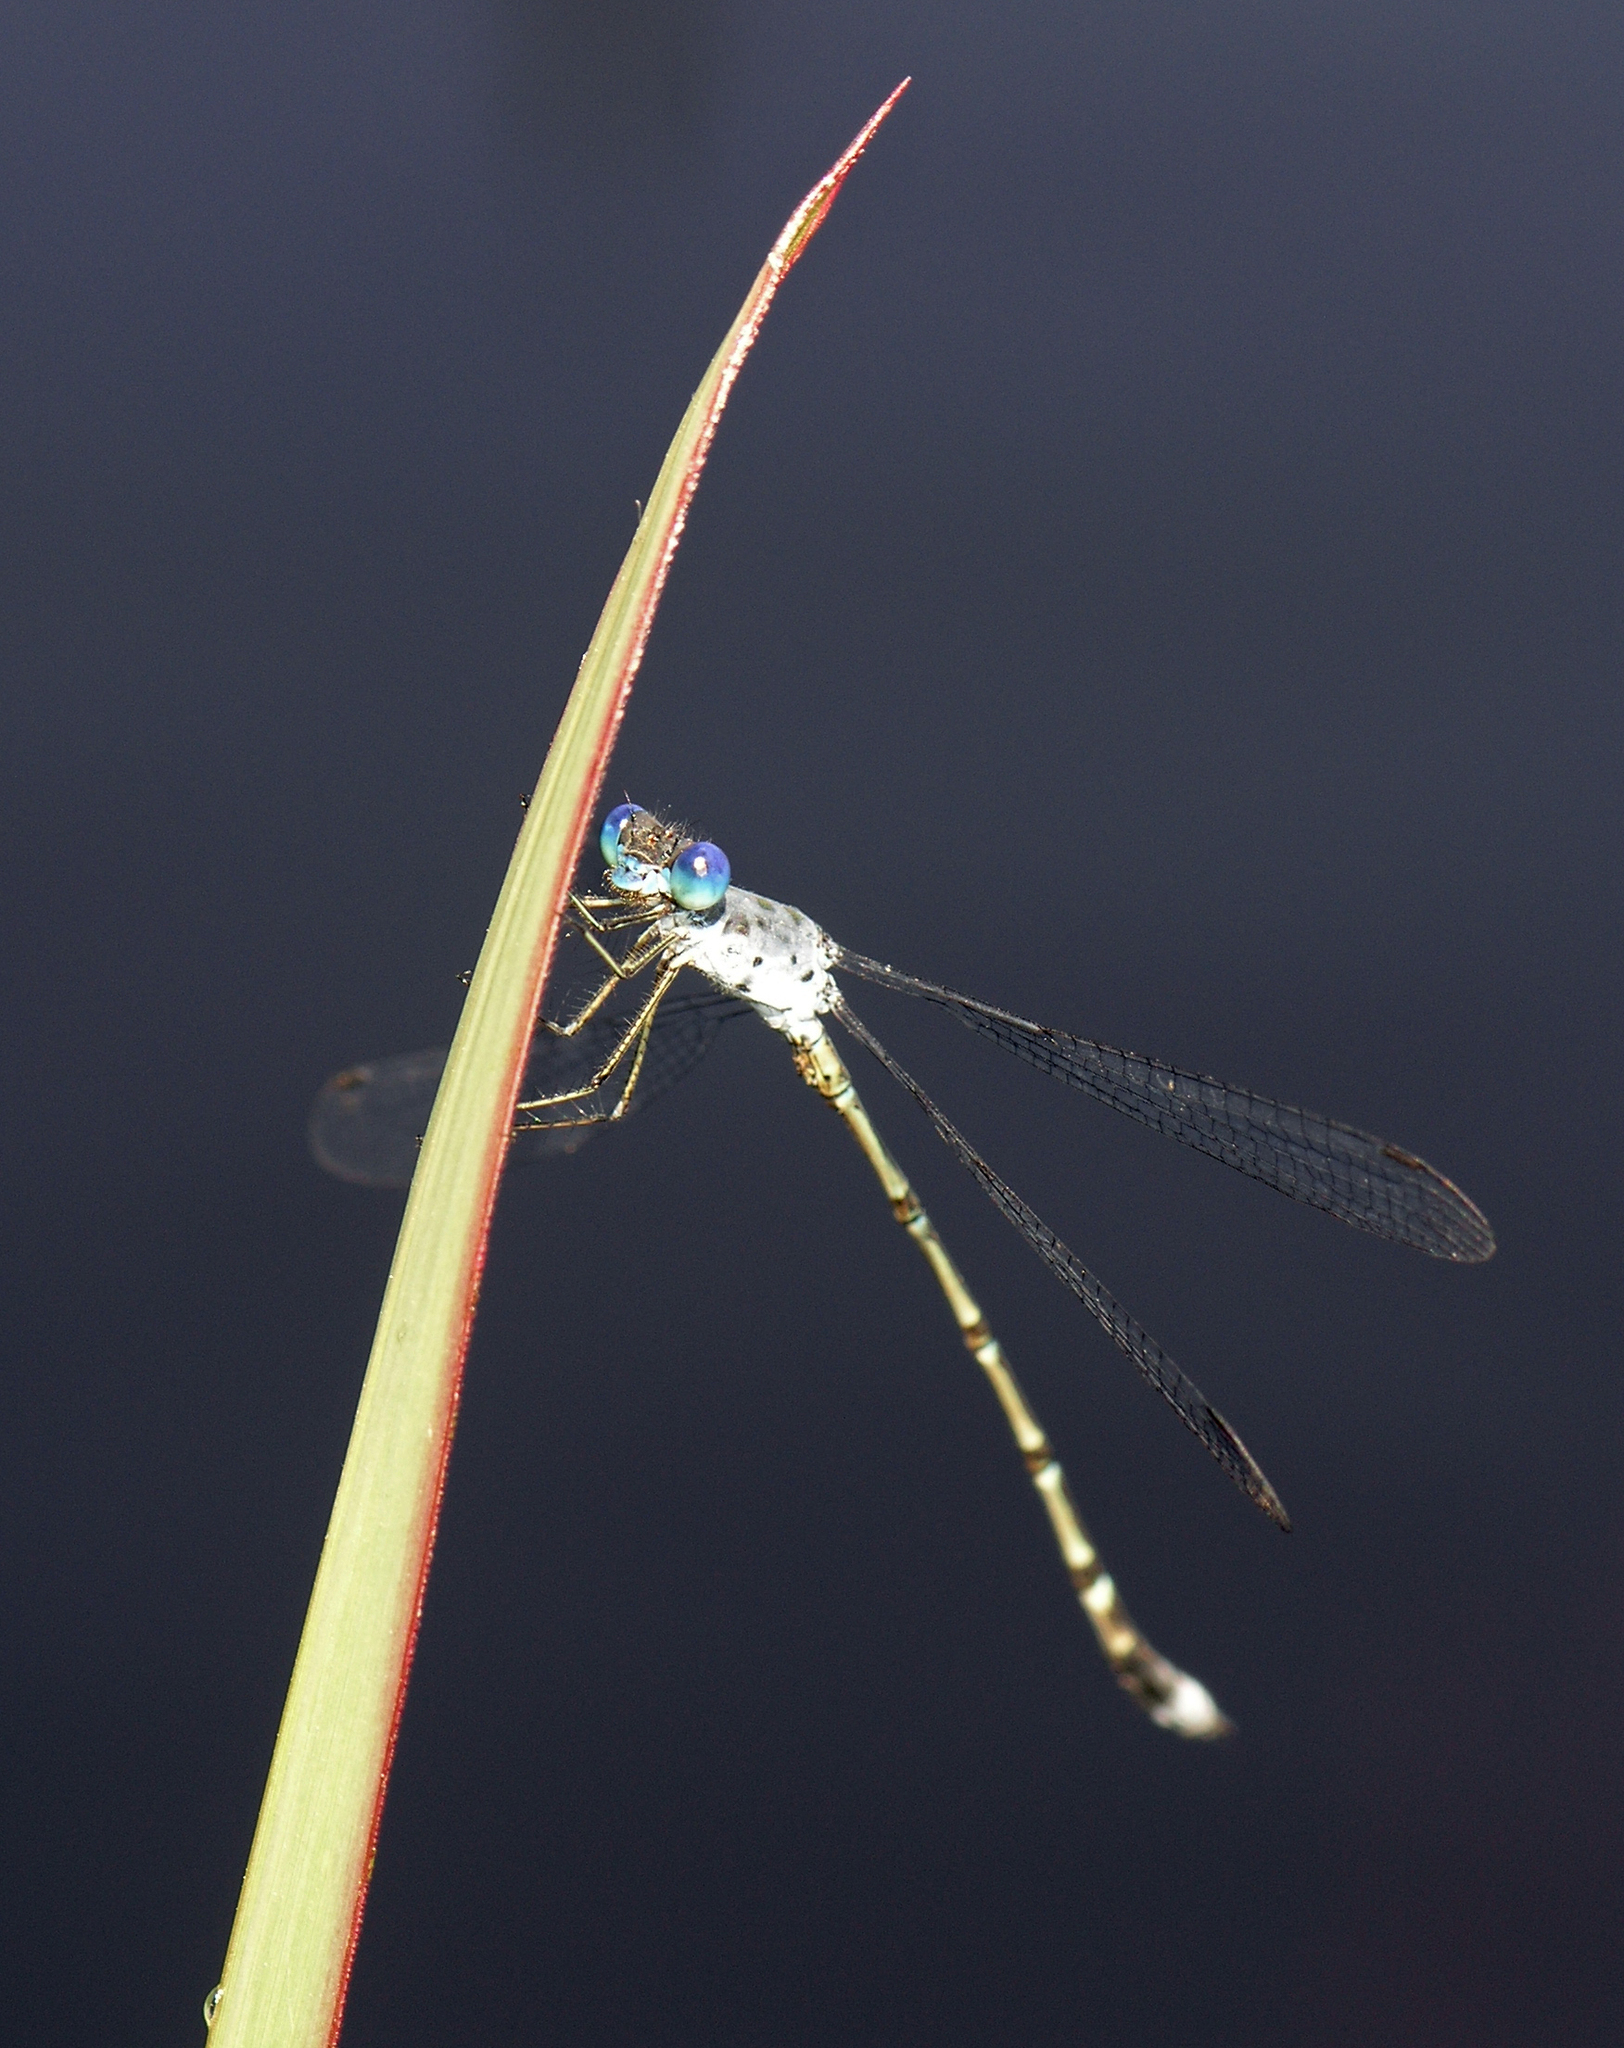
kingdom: Animalia
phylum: Arthropoda
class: Insecta
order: Odonata
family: Lestidae
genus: Lestes
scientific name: Lestes praemorsus
